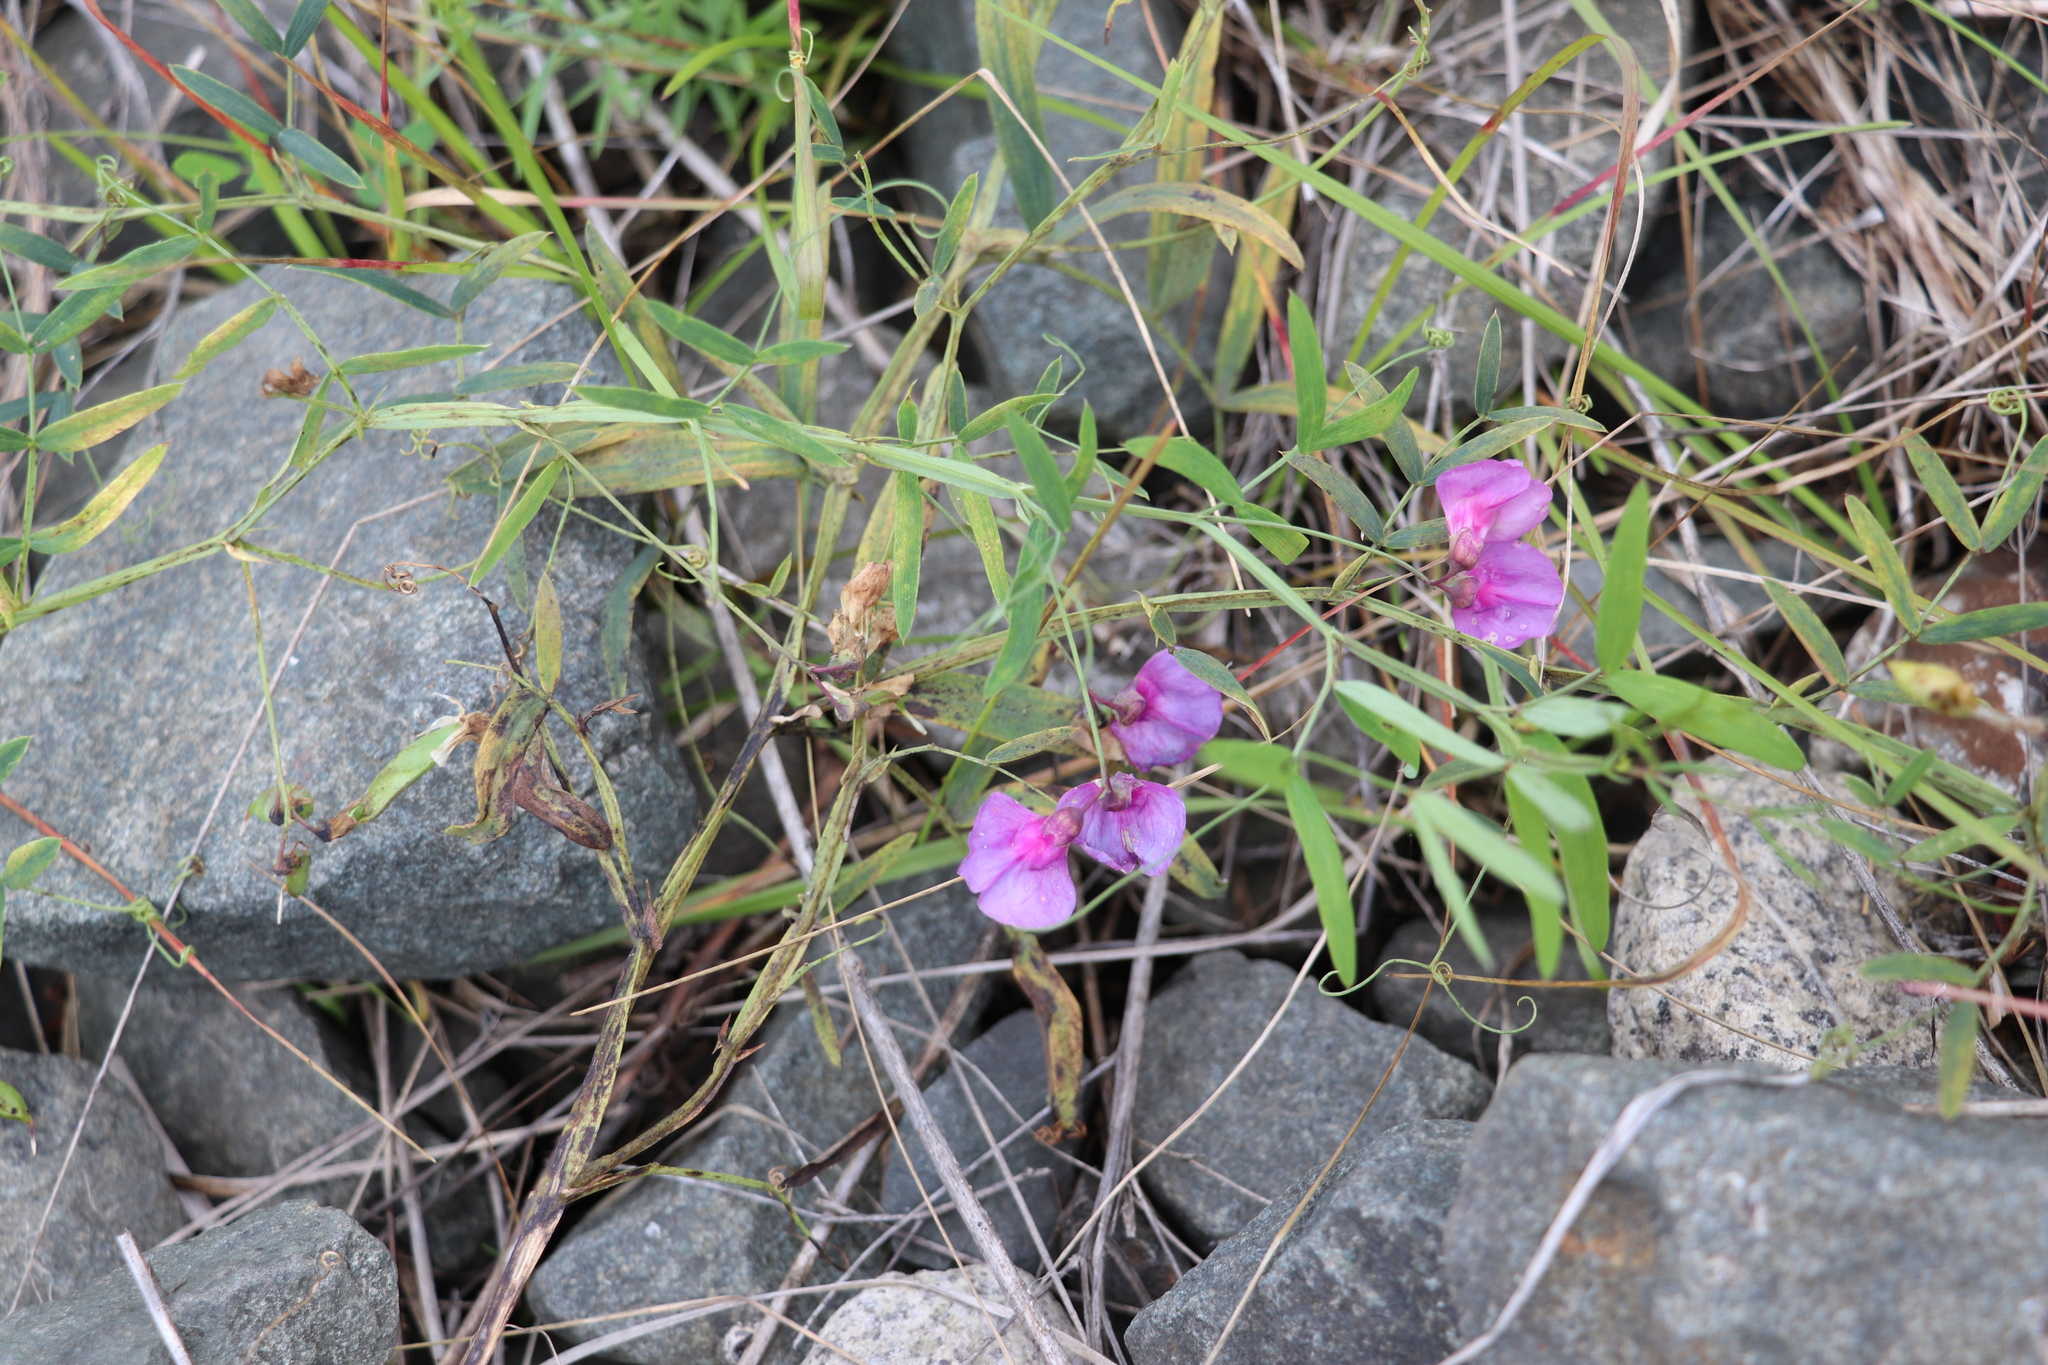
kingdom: Plantae
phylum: Tracheophyta
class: Magnoliopsida
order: Fabales
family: Fabaceae
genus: Lathyrus
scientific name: Lathyrus palustris
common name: Marsh pea
